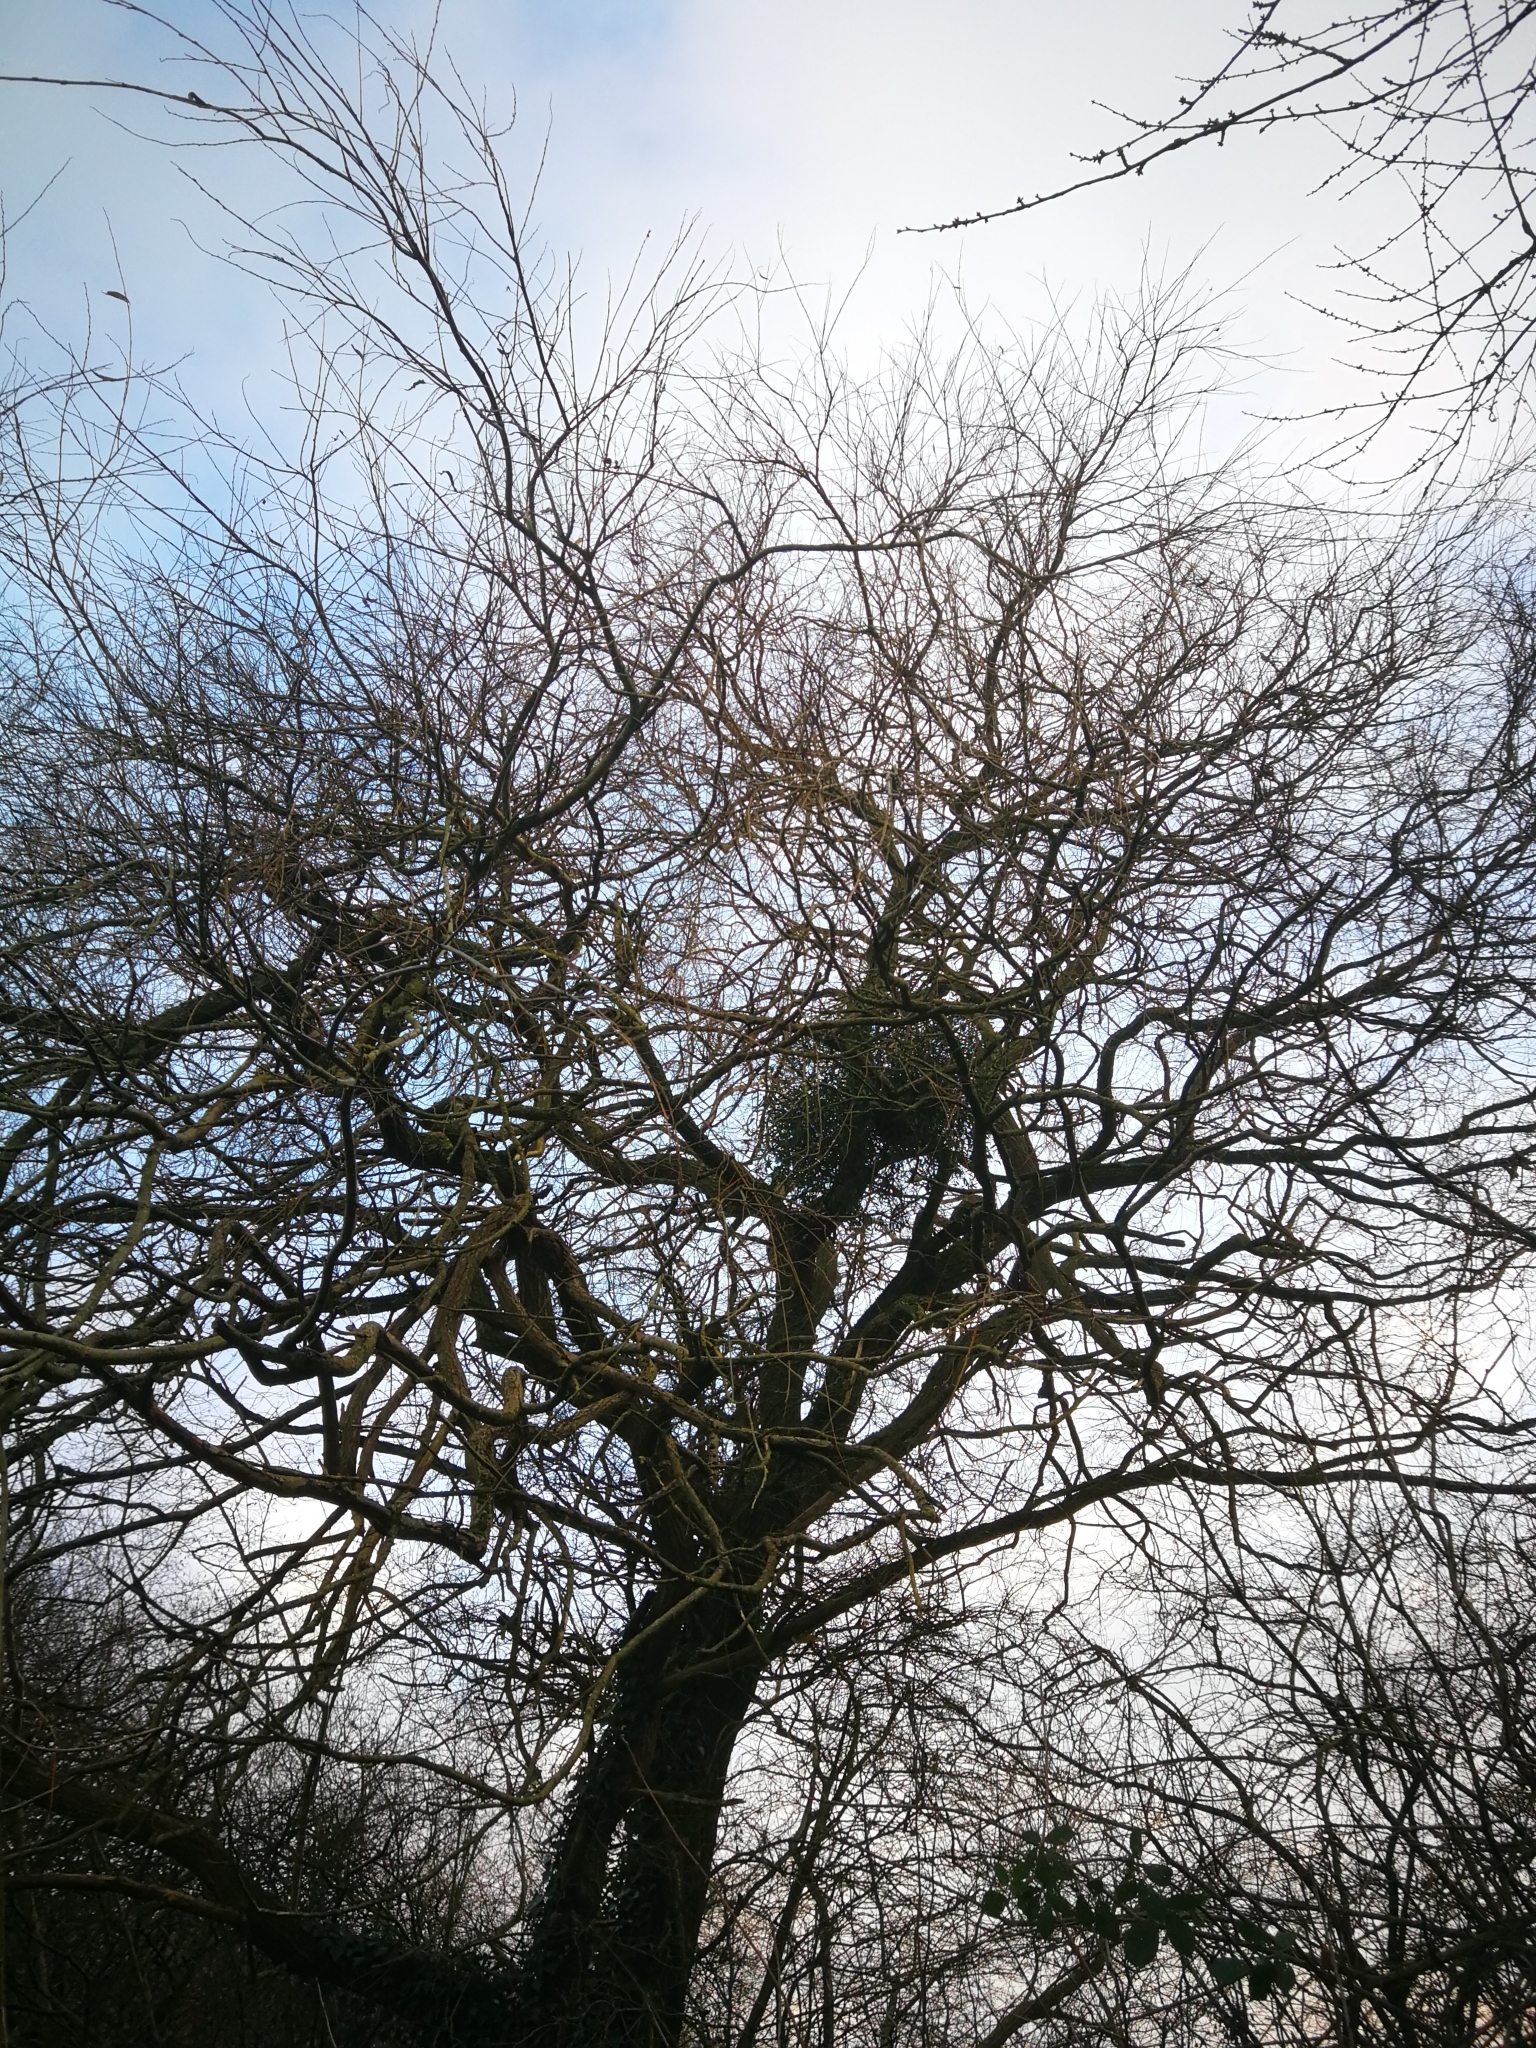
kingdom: Plantae
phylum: Tracheophyta
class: Magnoliopsida
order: Santalales
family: Viscaceae
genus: Viscum
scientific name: Viscum album
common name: Mistletoe
